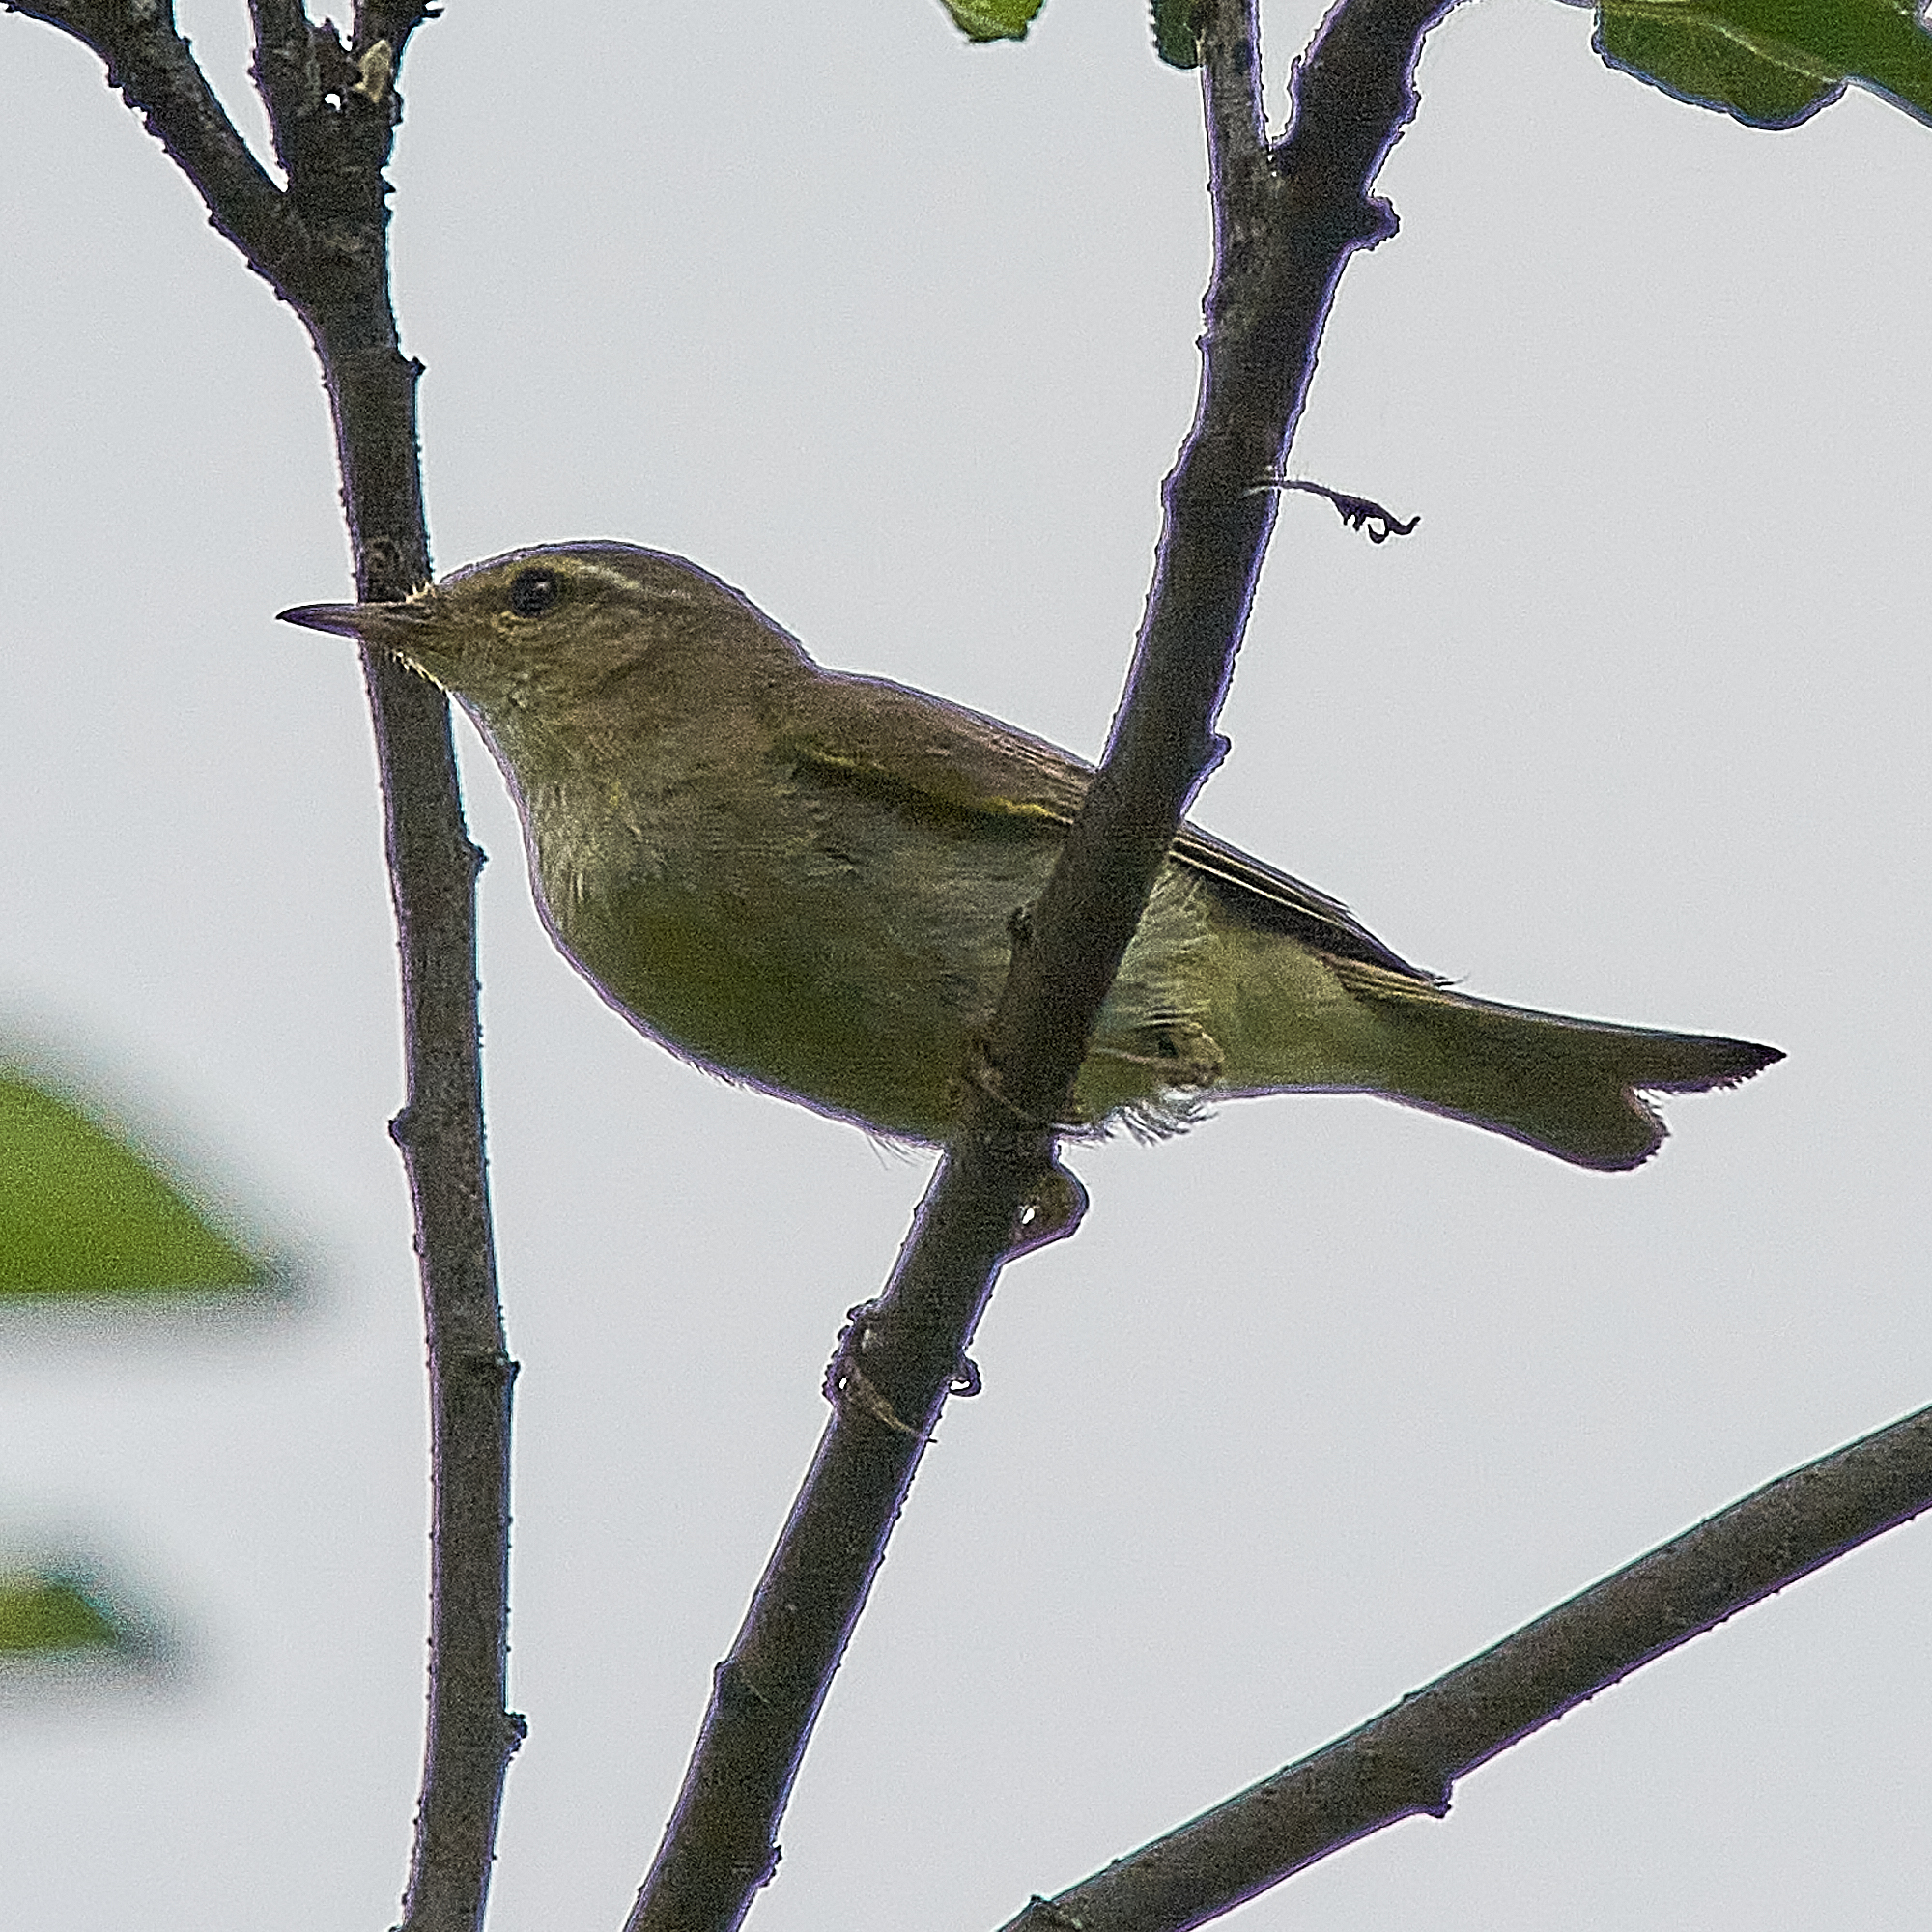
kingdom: Animalia
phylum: Chordata
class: Aves
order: Passeriformes
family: Phylloscopidae
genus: Phylloscopus
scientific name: Phylloscopus collybita
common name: Common chiffchaff
